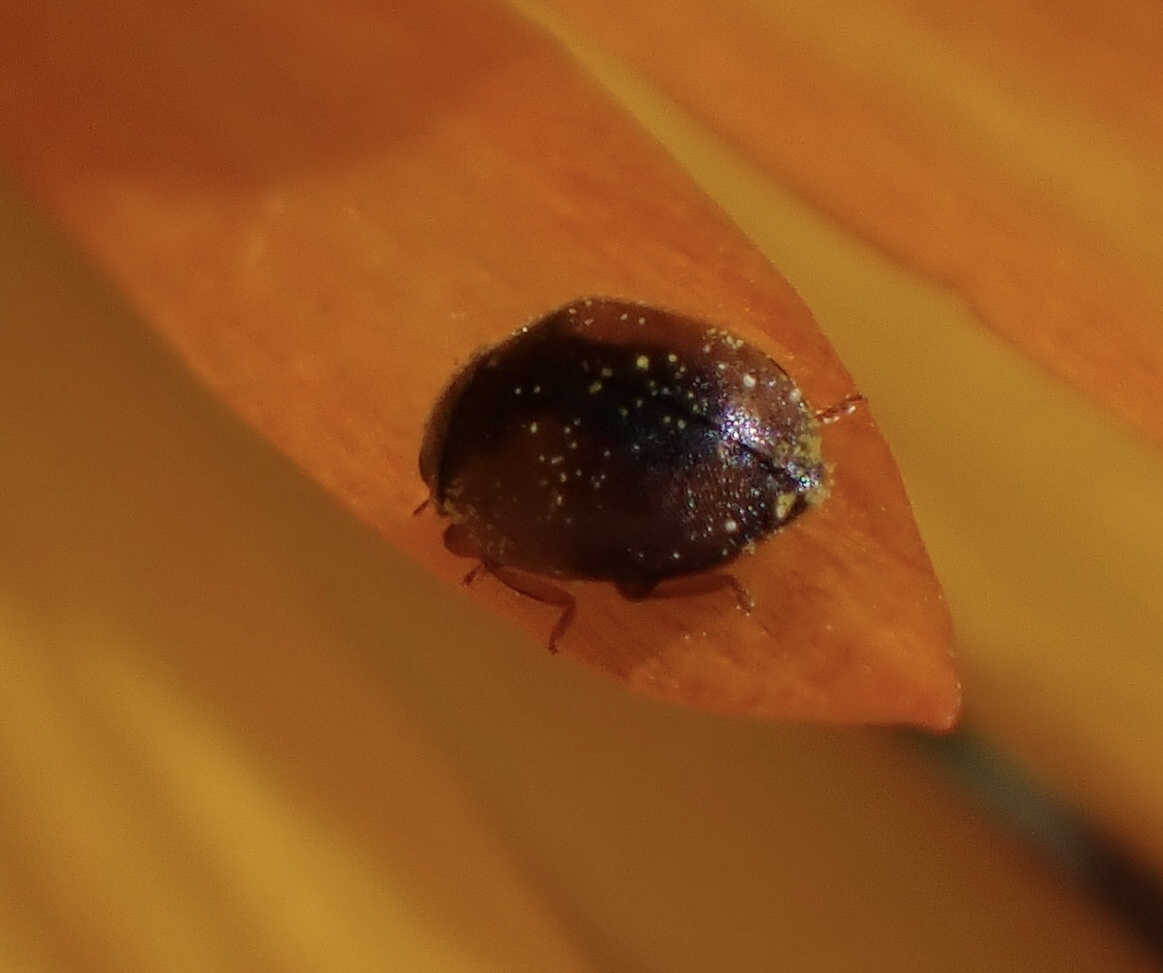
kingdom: Animalia
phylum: Arthropoda
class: Insecta
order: Coleoptera
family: Coccinellidae
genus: Scymnus
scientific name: Scymnus interruptus
